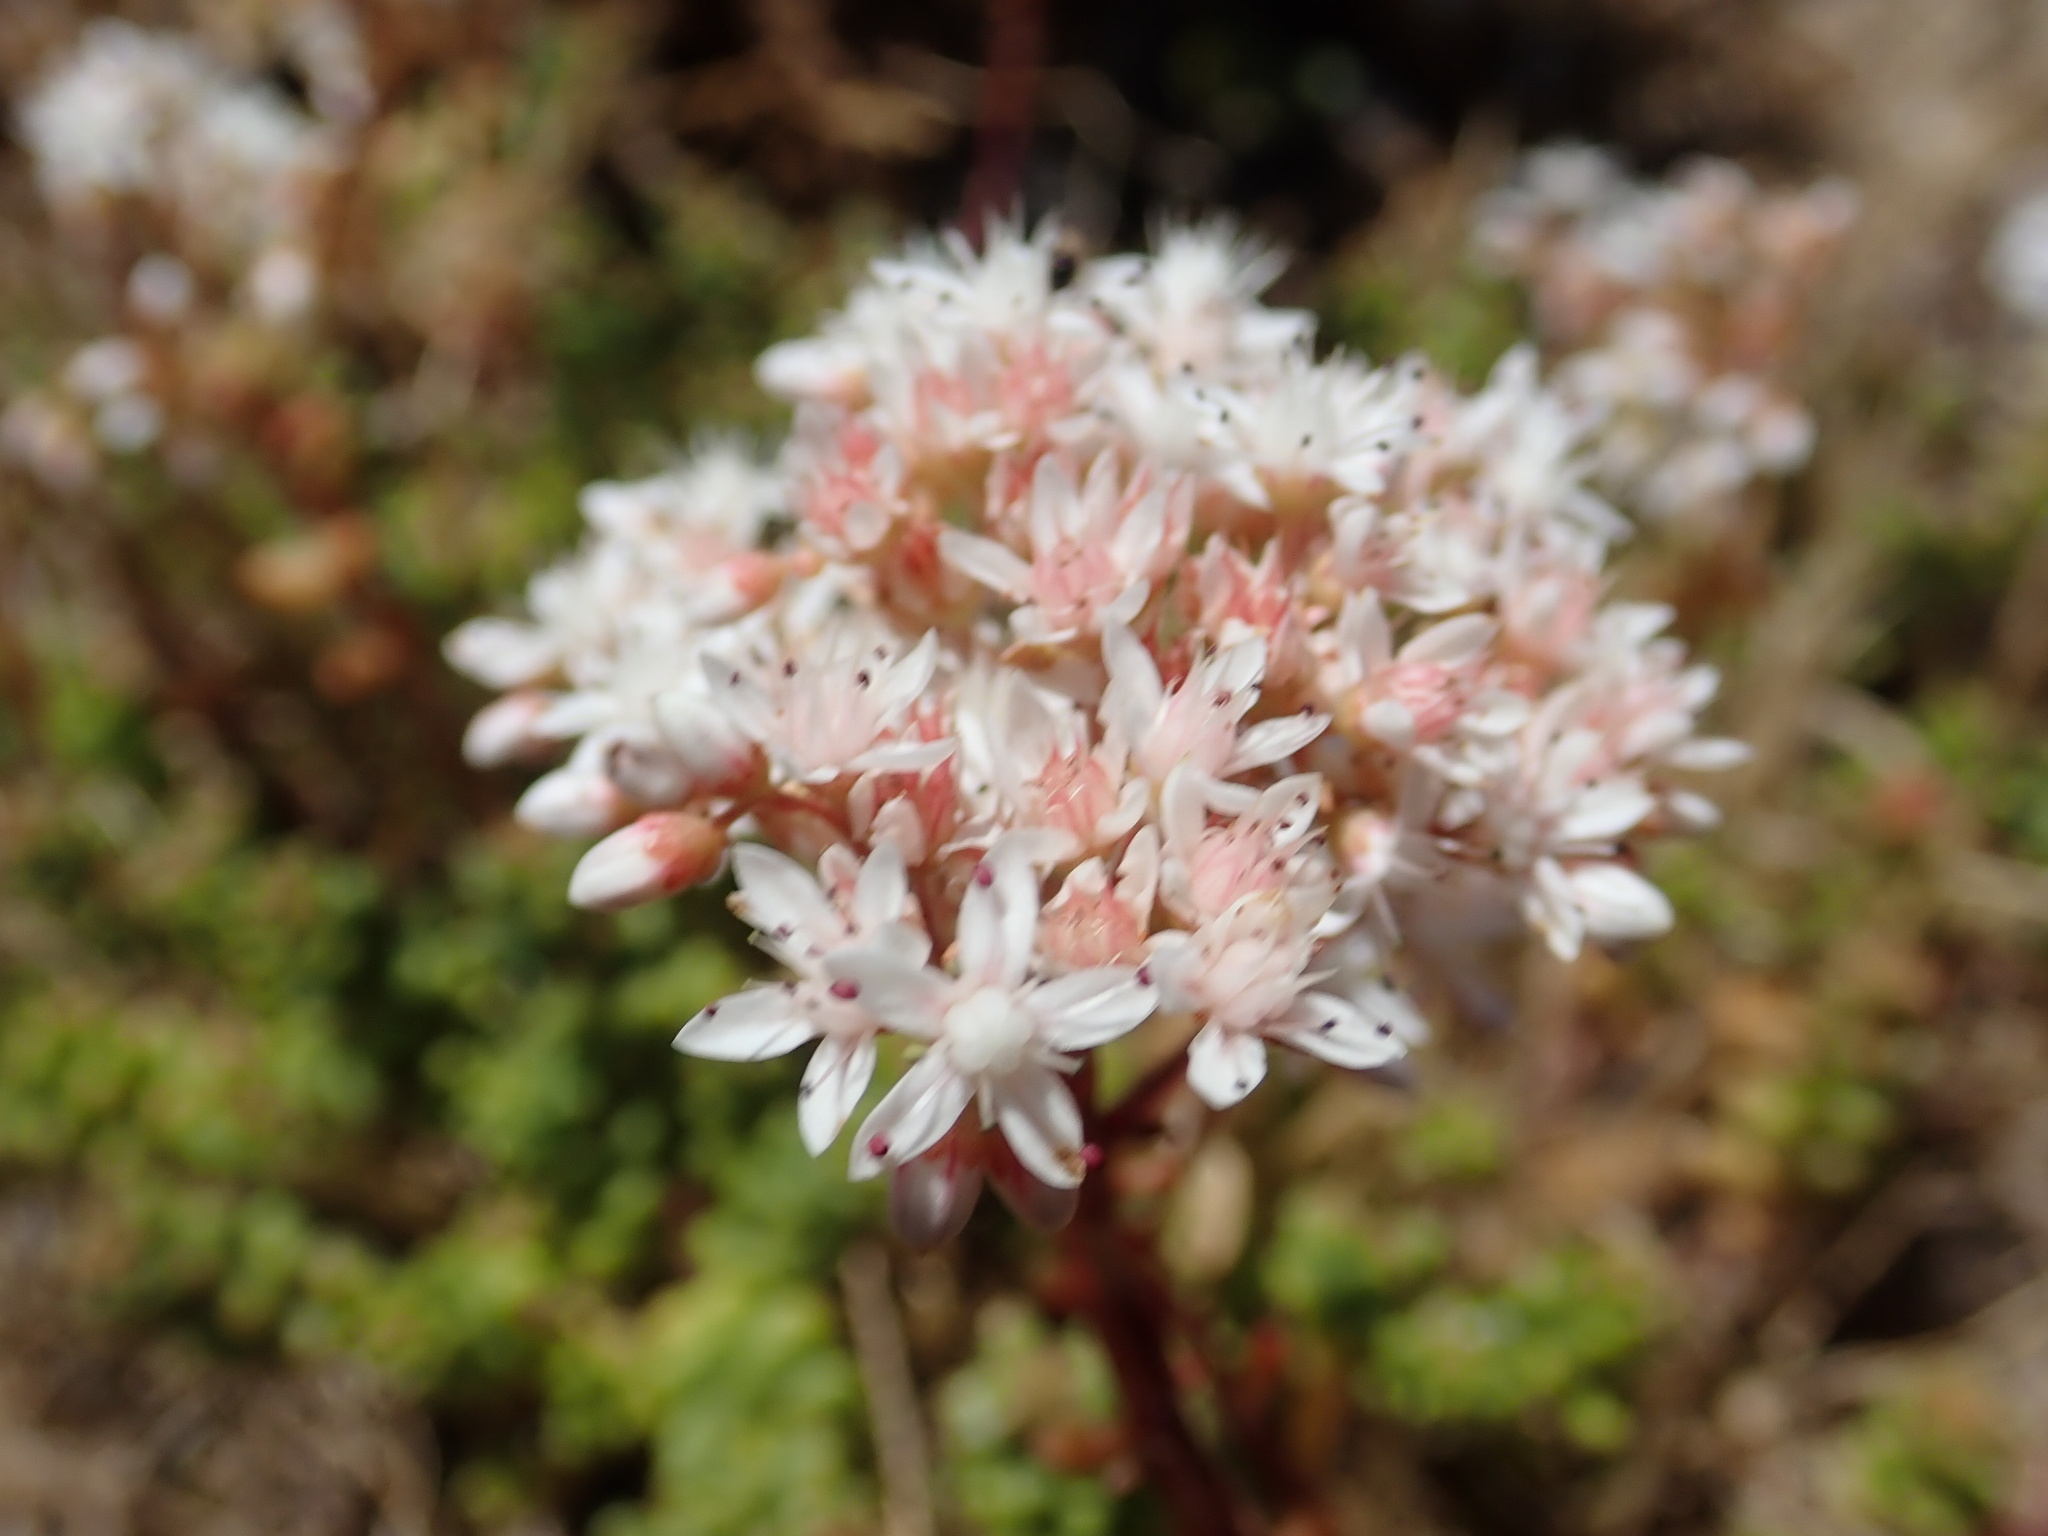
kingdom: Plantae
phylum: Tracheophyta
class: Magnoliopsida
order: Saxifragales
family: Crassulaceae
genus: Sedum
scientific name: Sedum album
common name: White stonecrop
